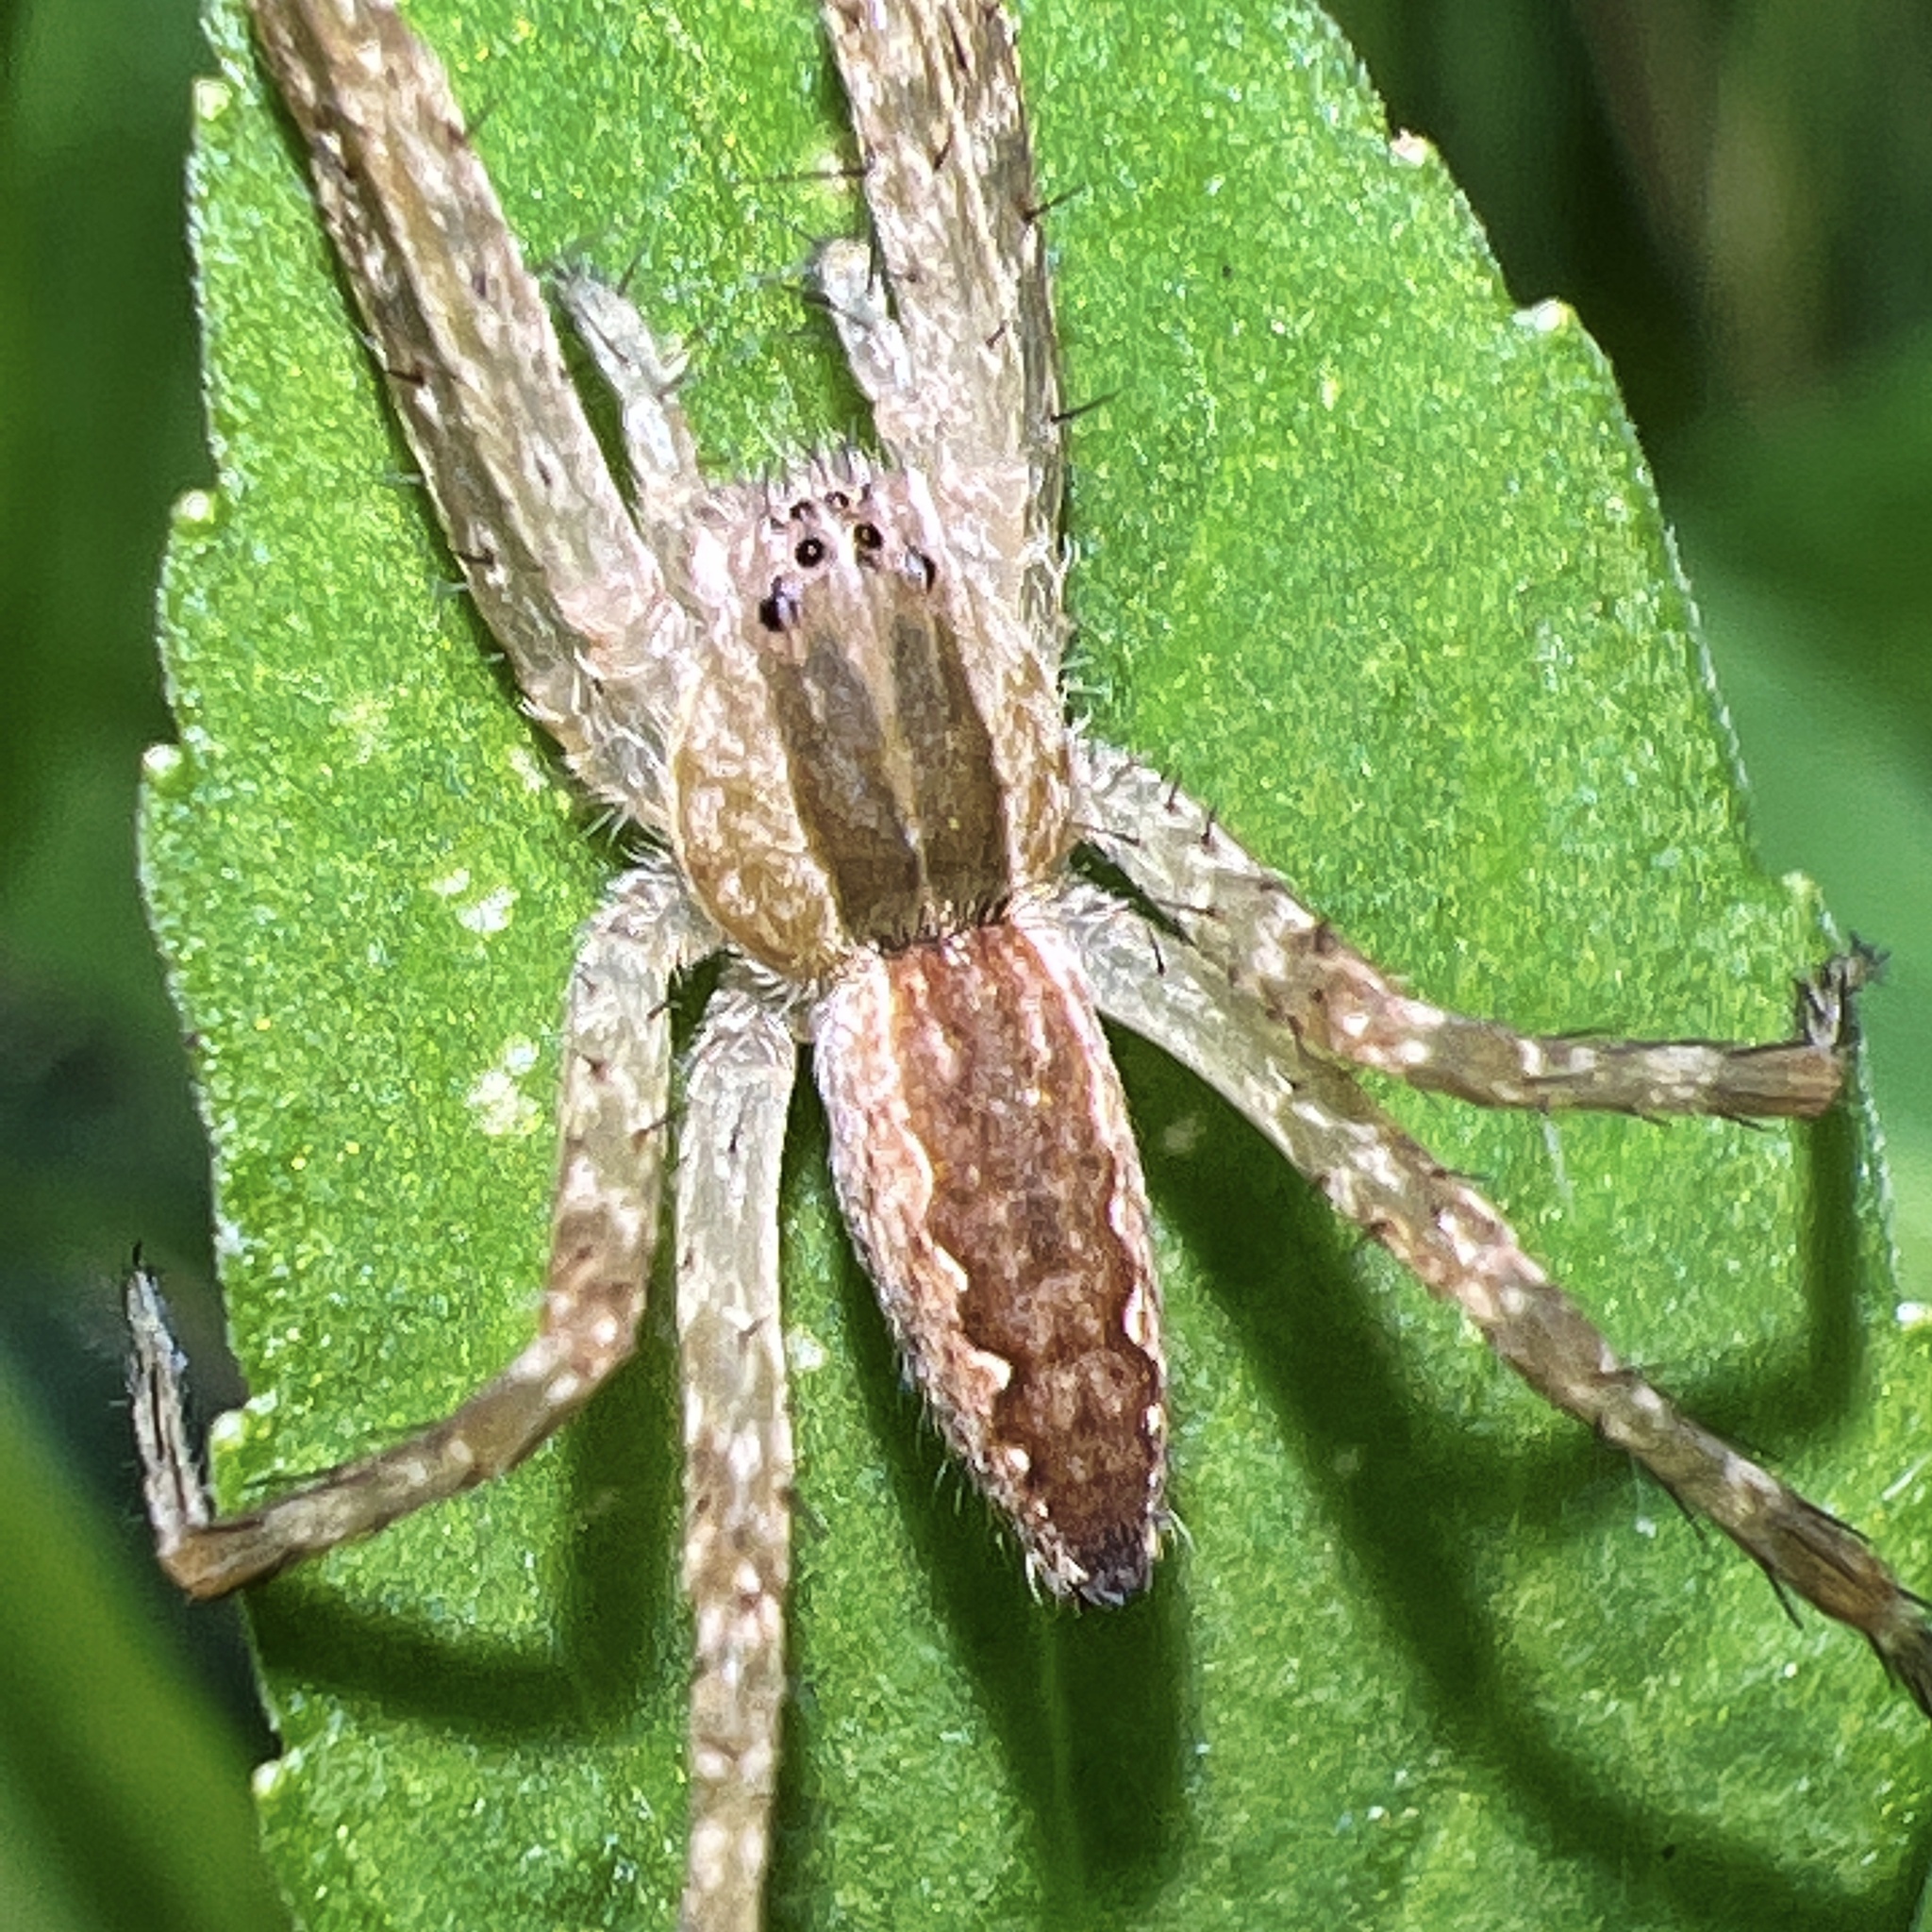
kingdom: Animalia
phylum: Arthropoda
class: Arachnida
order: Araneae
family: Pisauridae
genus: Pisaurina
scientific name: Pisaurina mira
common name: American nursery web spider
